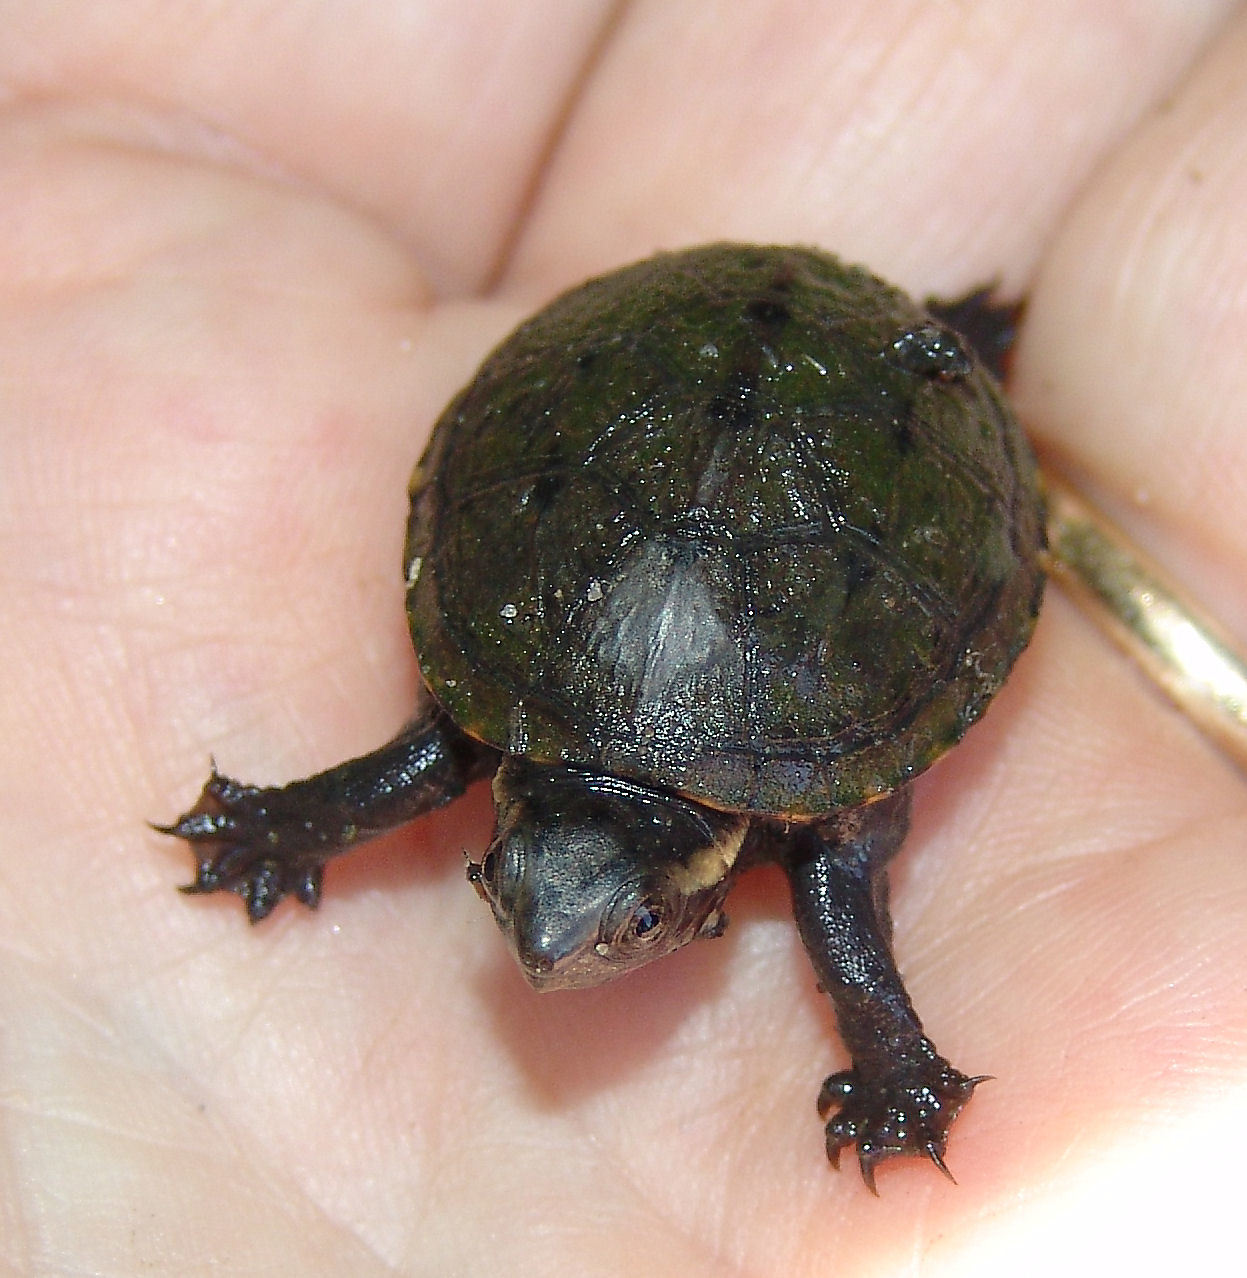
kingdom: Animalia
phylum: Chordata
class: Testudines
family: Kinosternidae
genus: Kinosternon
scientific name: Kinosternon subrubrum
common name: Eastern mud turtle
